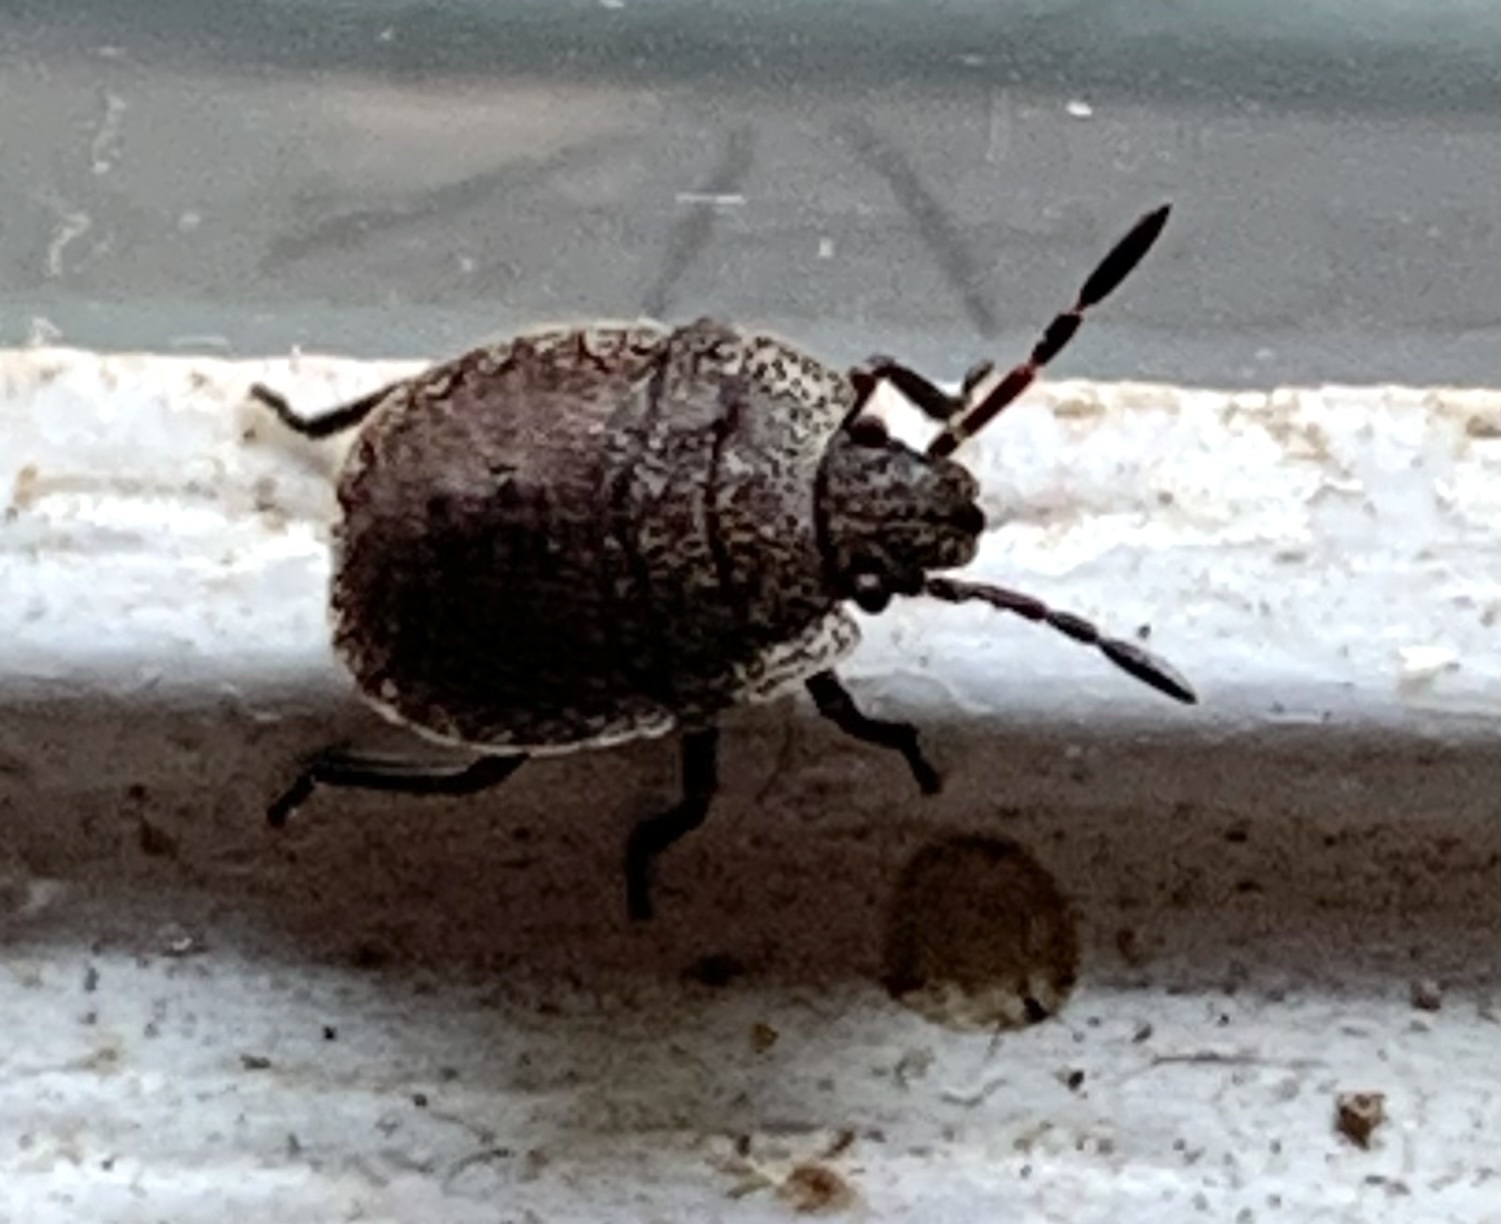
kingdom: Animalia
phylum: Arthropoda
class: Insecta
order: Hemiptera
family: Pentatomidae
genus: Menecles
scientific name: Menecles insertus
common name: Elf shoe stink bug
